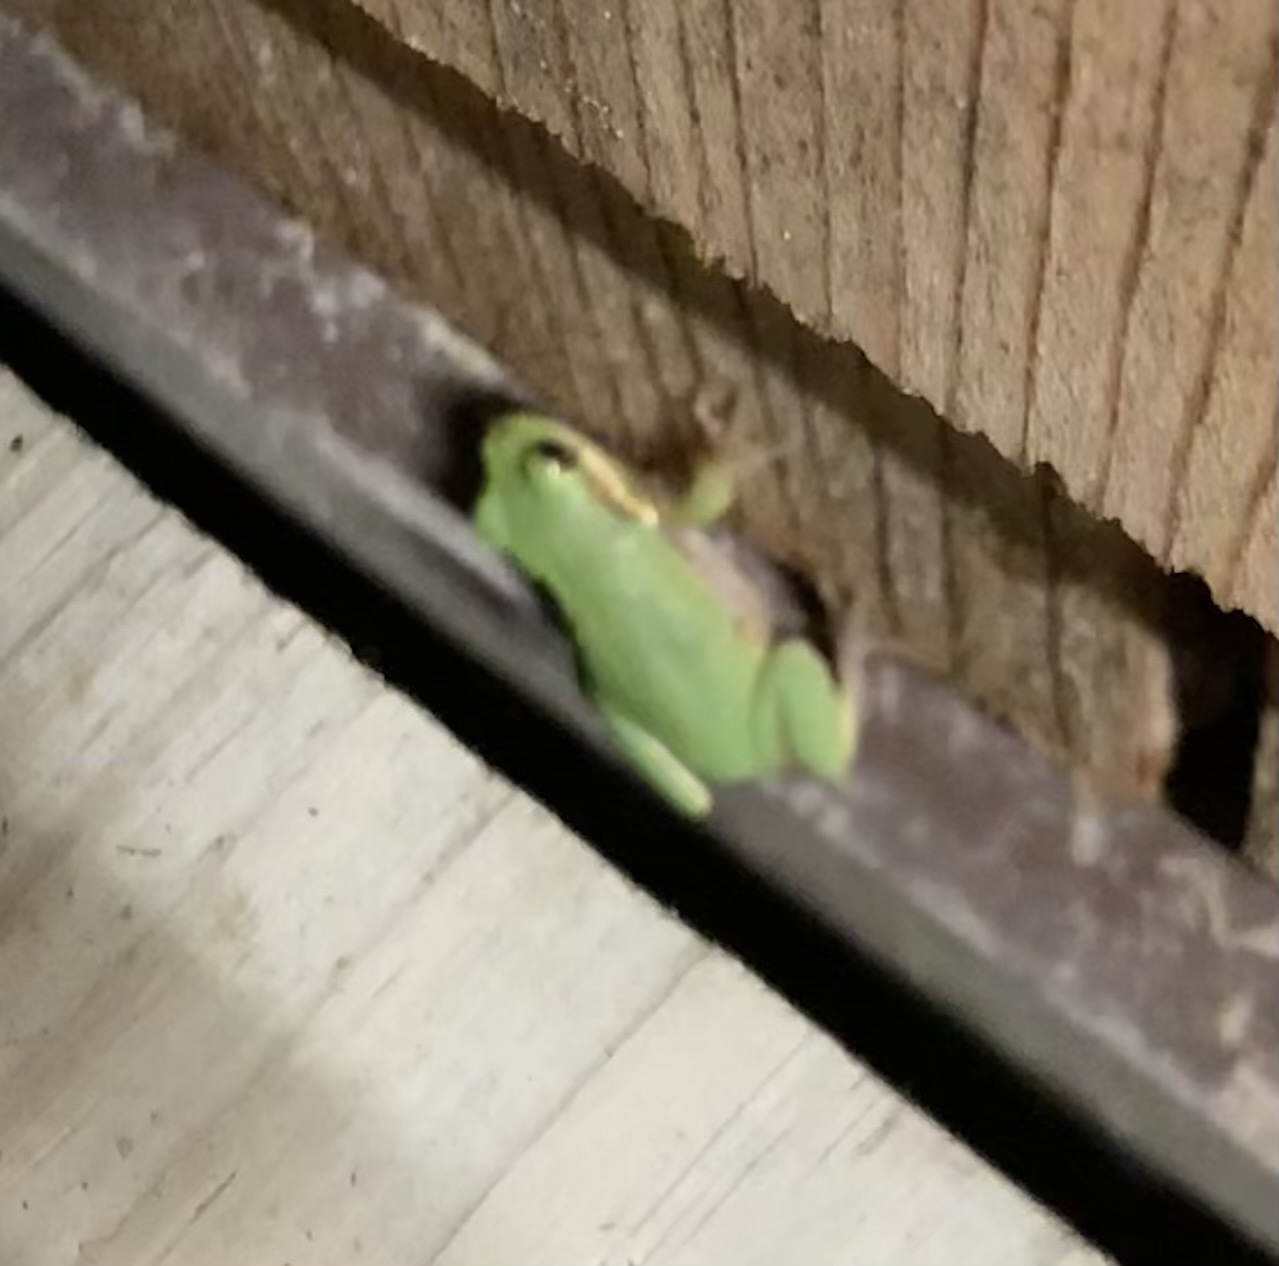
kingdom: Animalia
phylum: Chordata
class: Amphibia
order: Anura
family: Hylidae
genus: Dryophytes
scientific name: Dryophytes squirellus
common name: Squirrel treefrog
